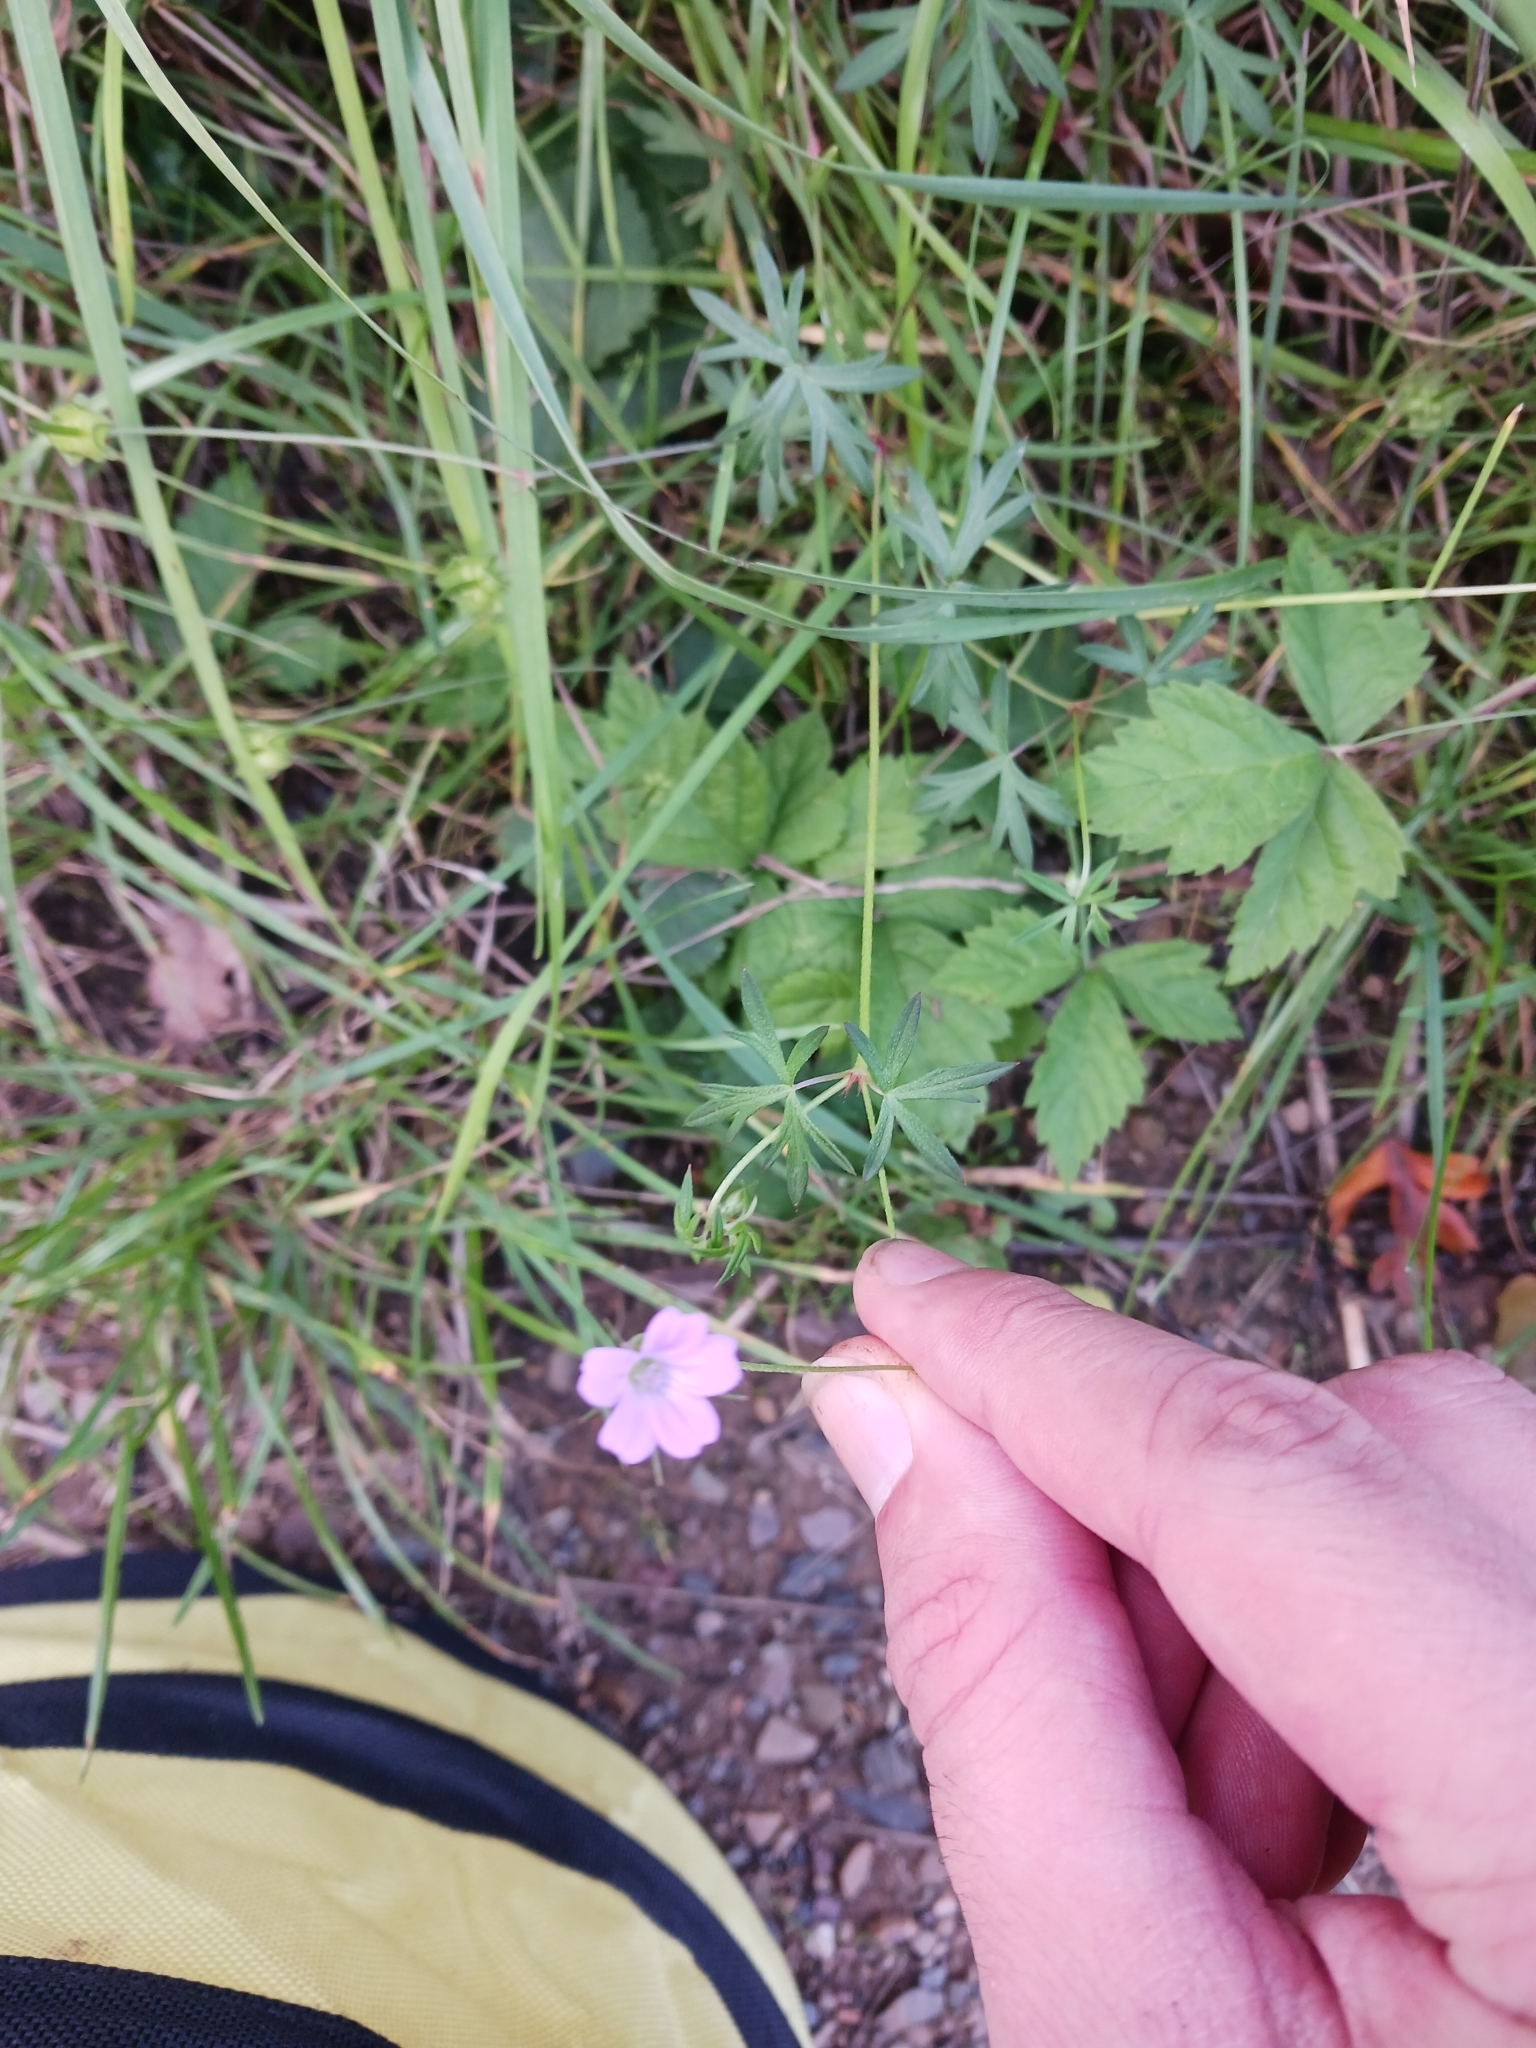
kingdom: Plantae
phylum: Tracheophyta
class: Magnoliopsida
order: Geraniales
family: Geraniaceae
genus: Geranium
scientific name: Geranium columbinum
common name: Long-stalked crane's-bill
